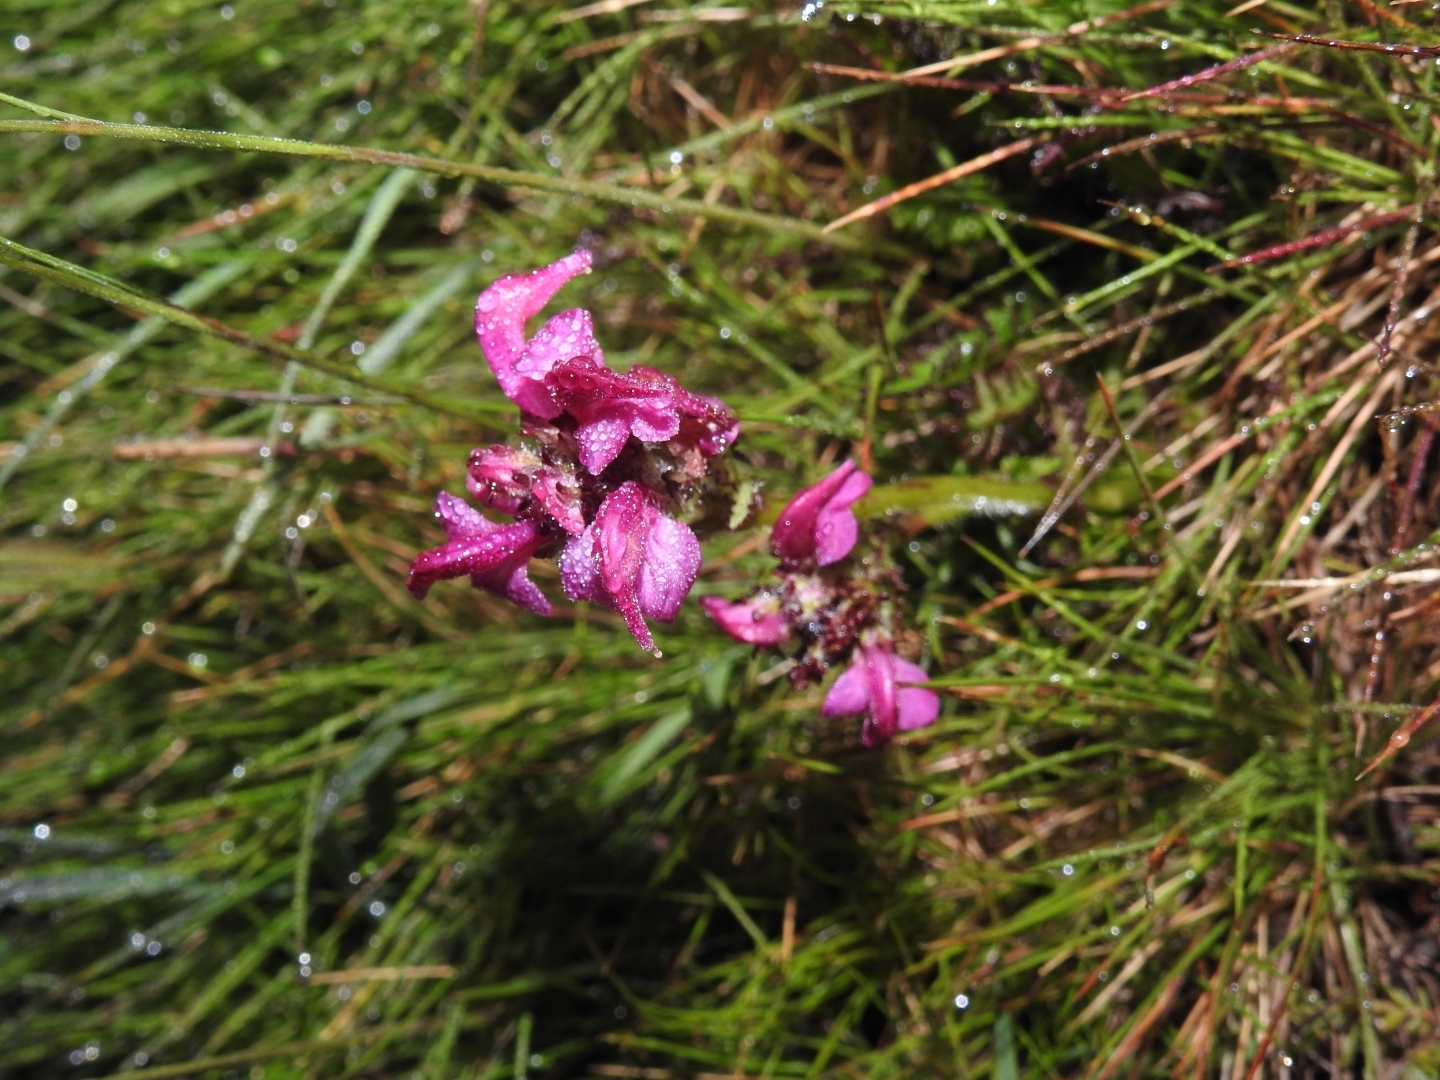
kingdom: Plantae
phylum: Tracheophyta
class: Magnoliopsida
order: Lamiales
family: Orobanchaceae
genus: Pedicularis
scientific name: Pedicularis pyrenaica
